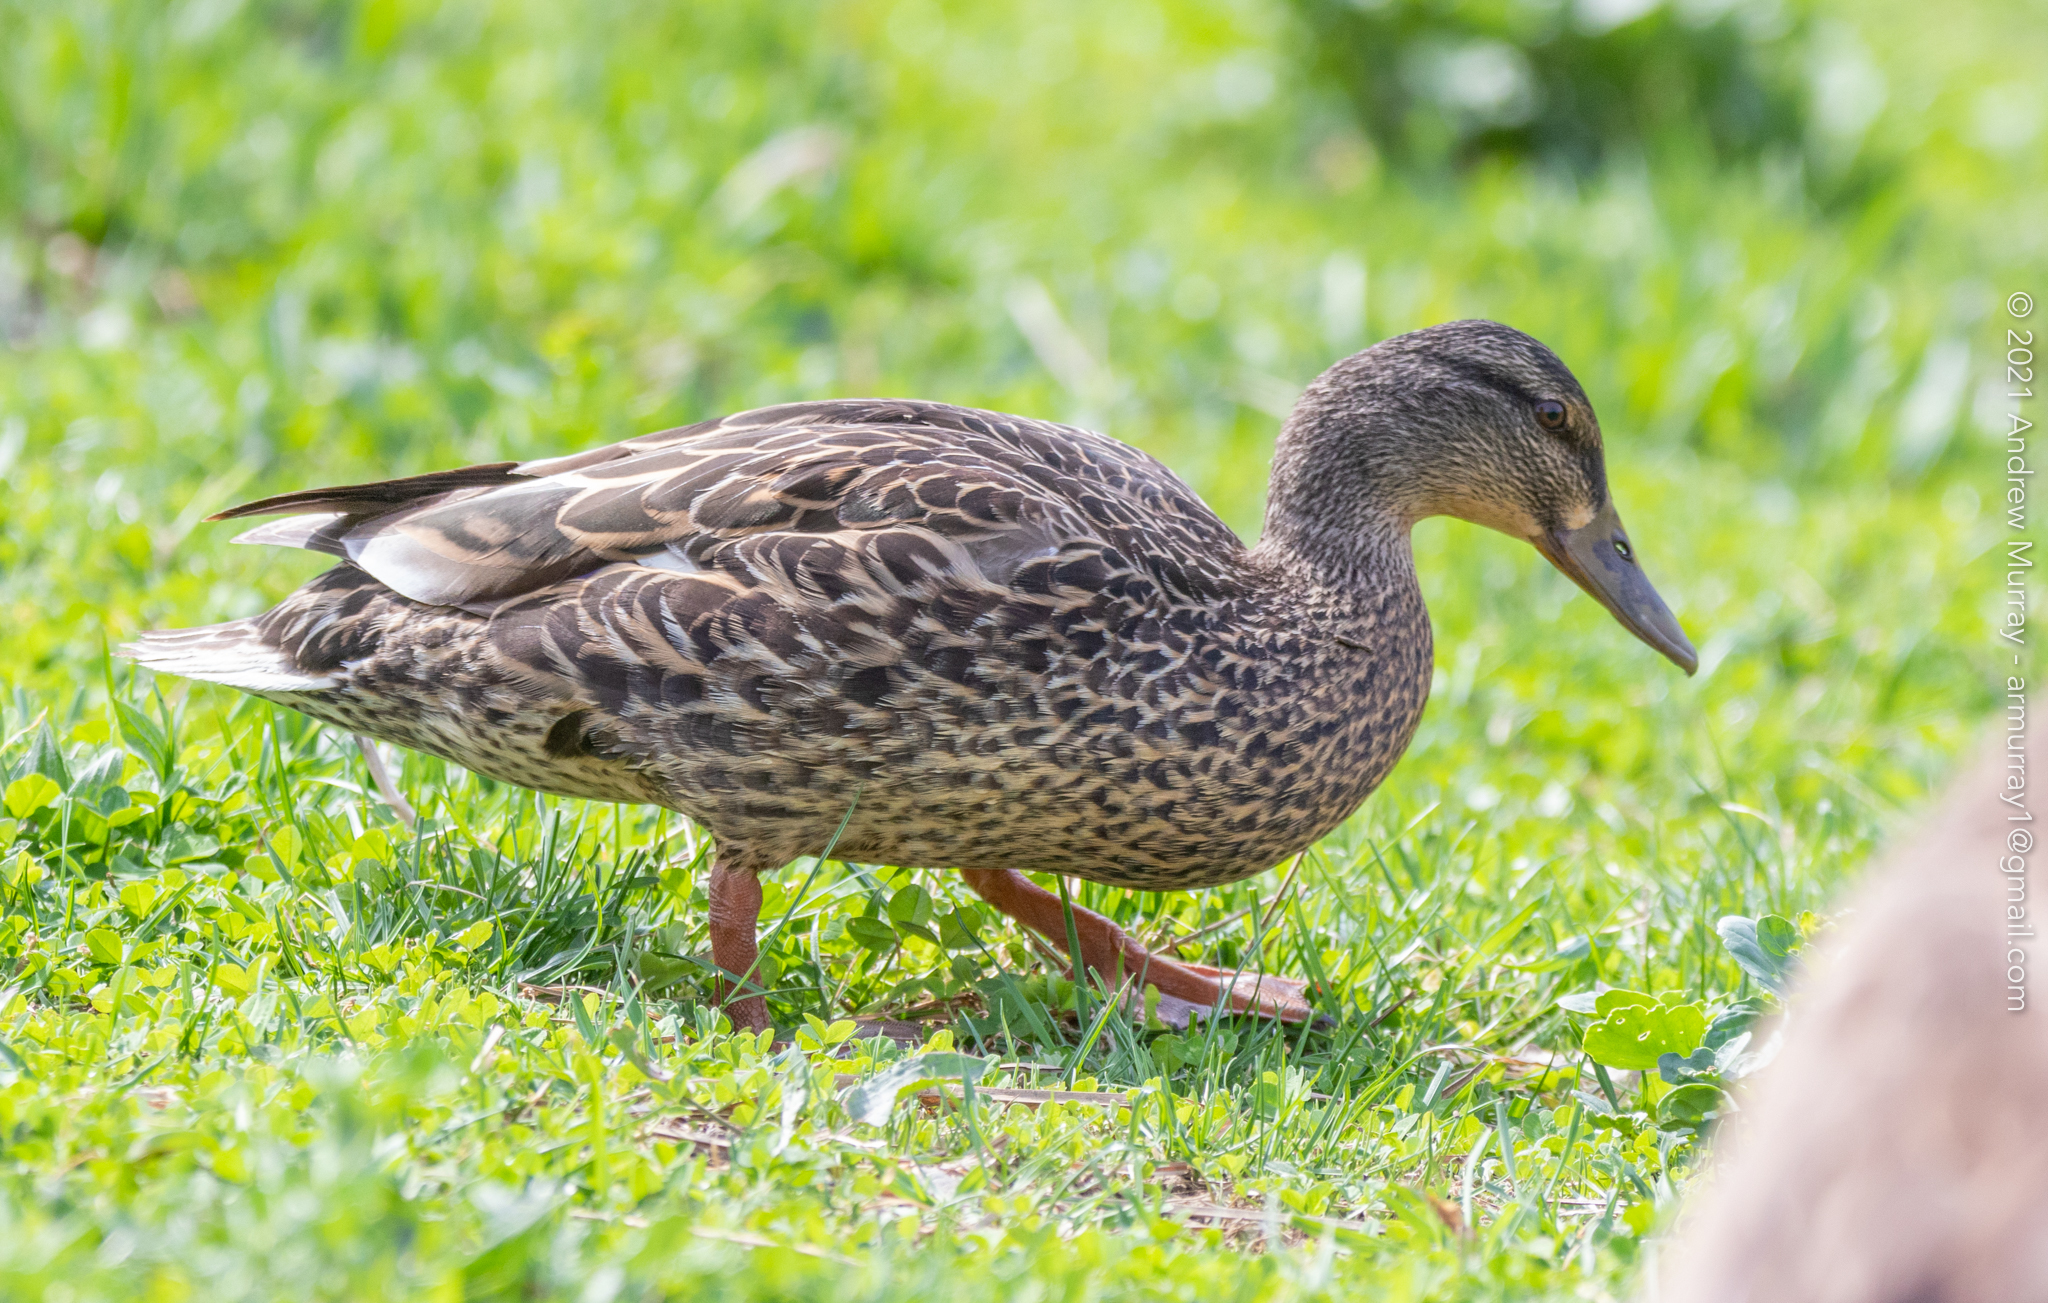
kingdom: Animalia
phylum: Chordata
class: Aves
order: Anseriformes
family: Anatidae
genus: Anas
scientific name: Anas platyrhynchos
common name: Mallard
